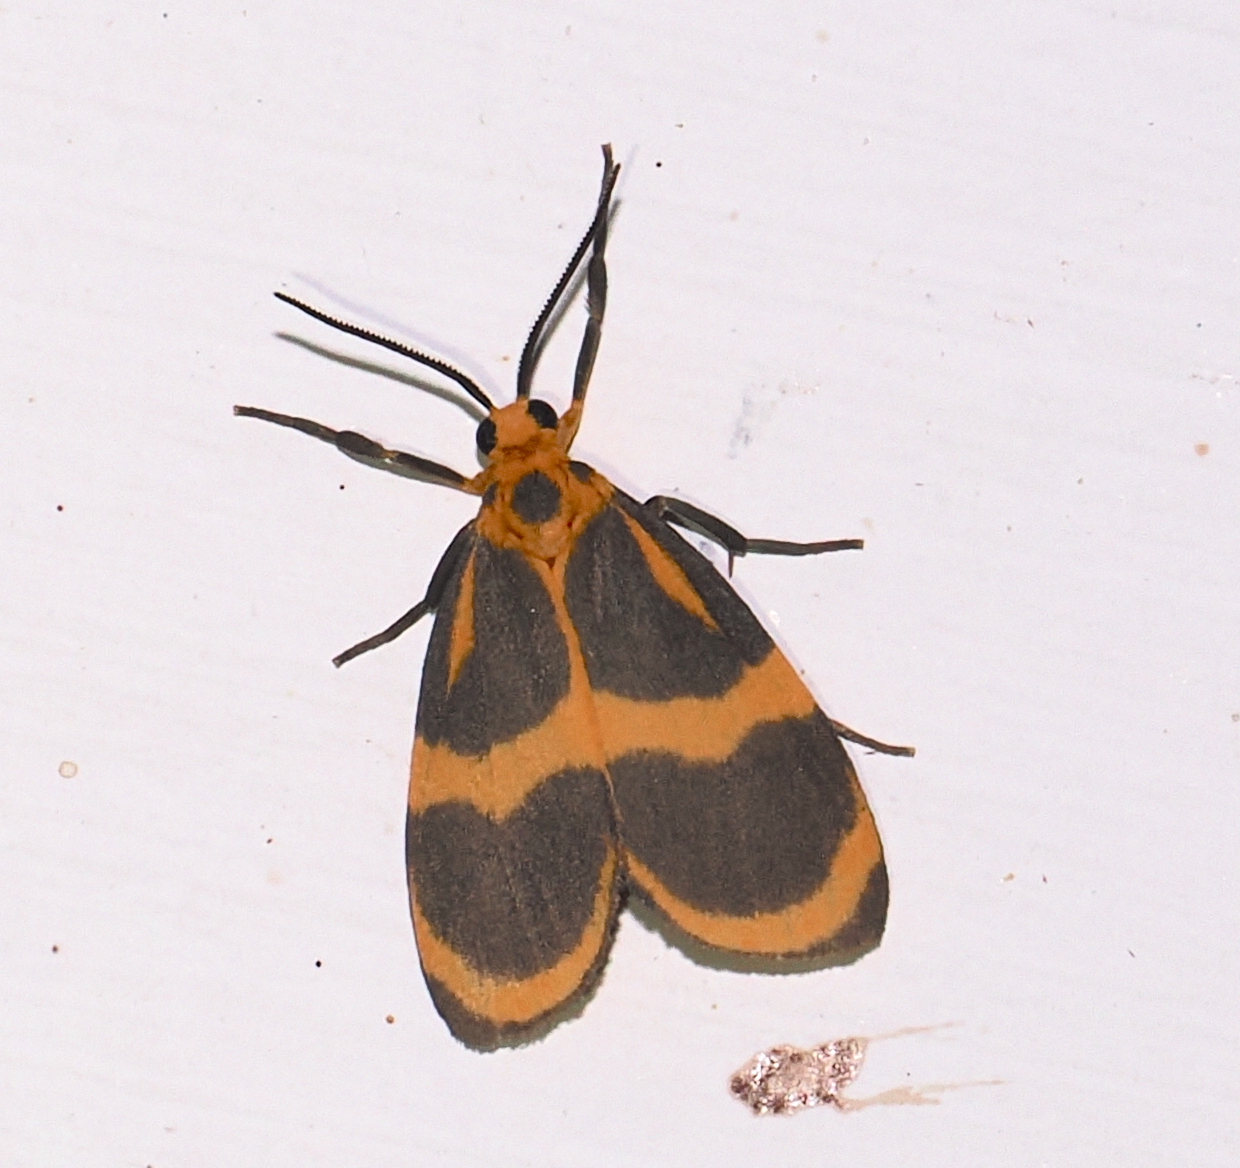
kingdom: Animalia
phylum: Arthropoda
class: Insecta
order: Lepidoptera
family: Erebidae
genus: Eudesmia
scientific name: Eudesmia lunaris
